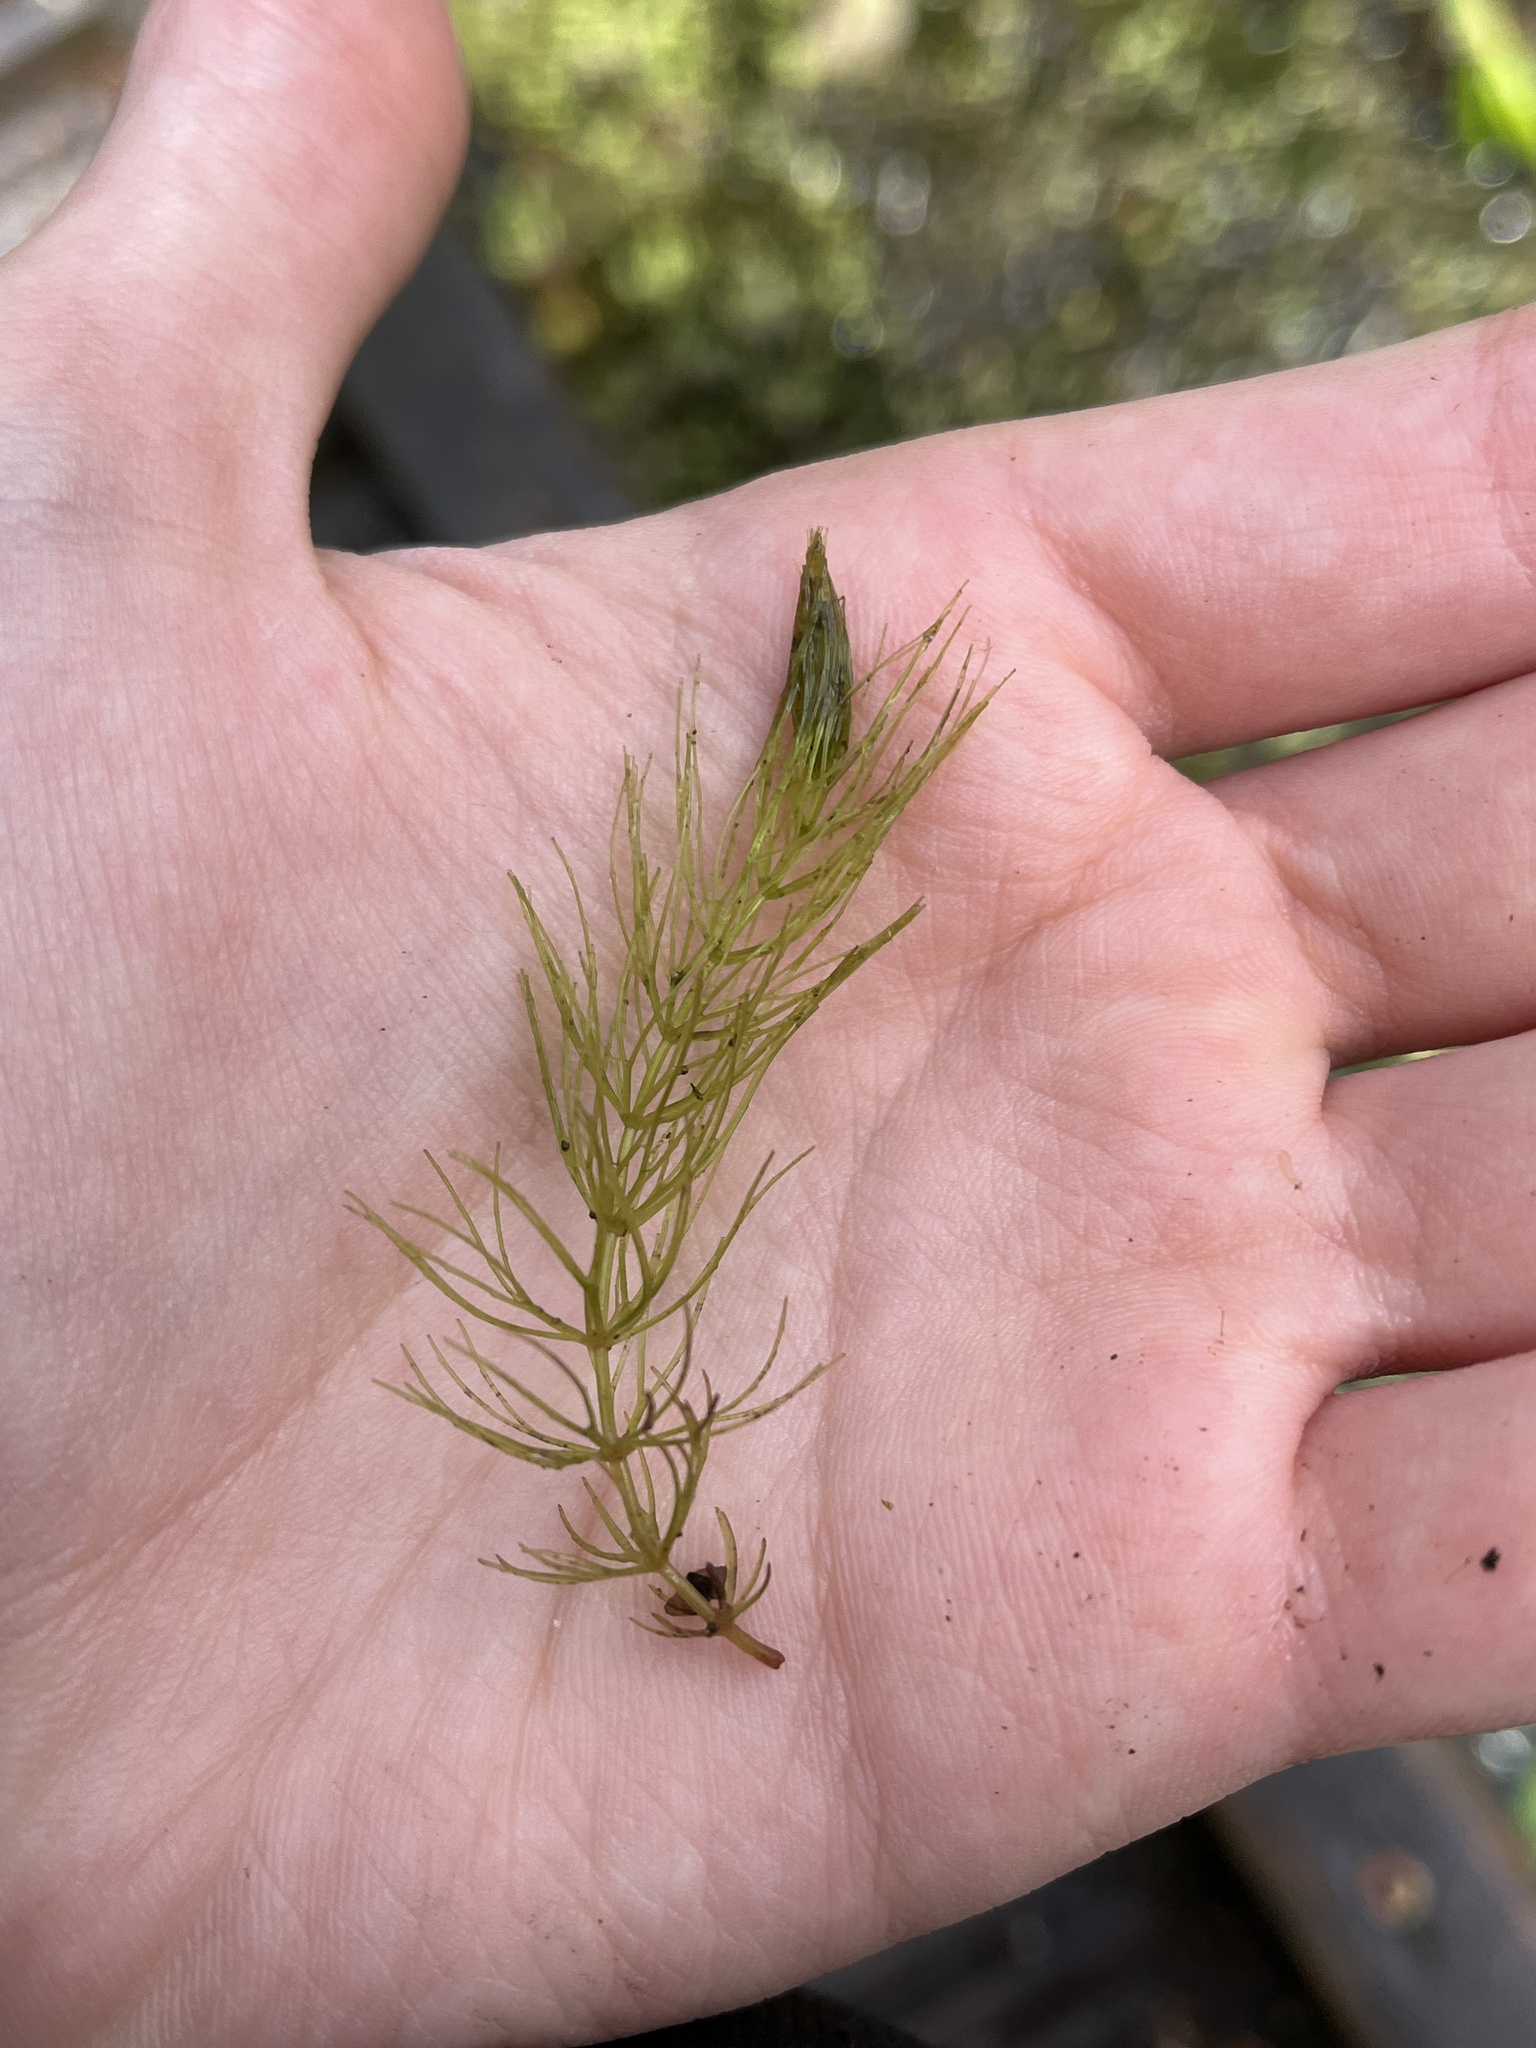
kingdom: Plantae
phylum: Tracheophyta
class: Magnoliopsida
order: Ceratophyllales
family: Ceratophyllaceae
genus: Ceratophyllum
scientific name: Ceratophyllum demersum
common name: Rigid hornwort
